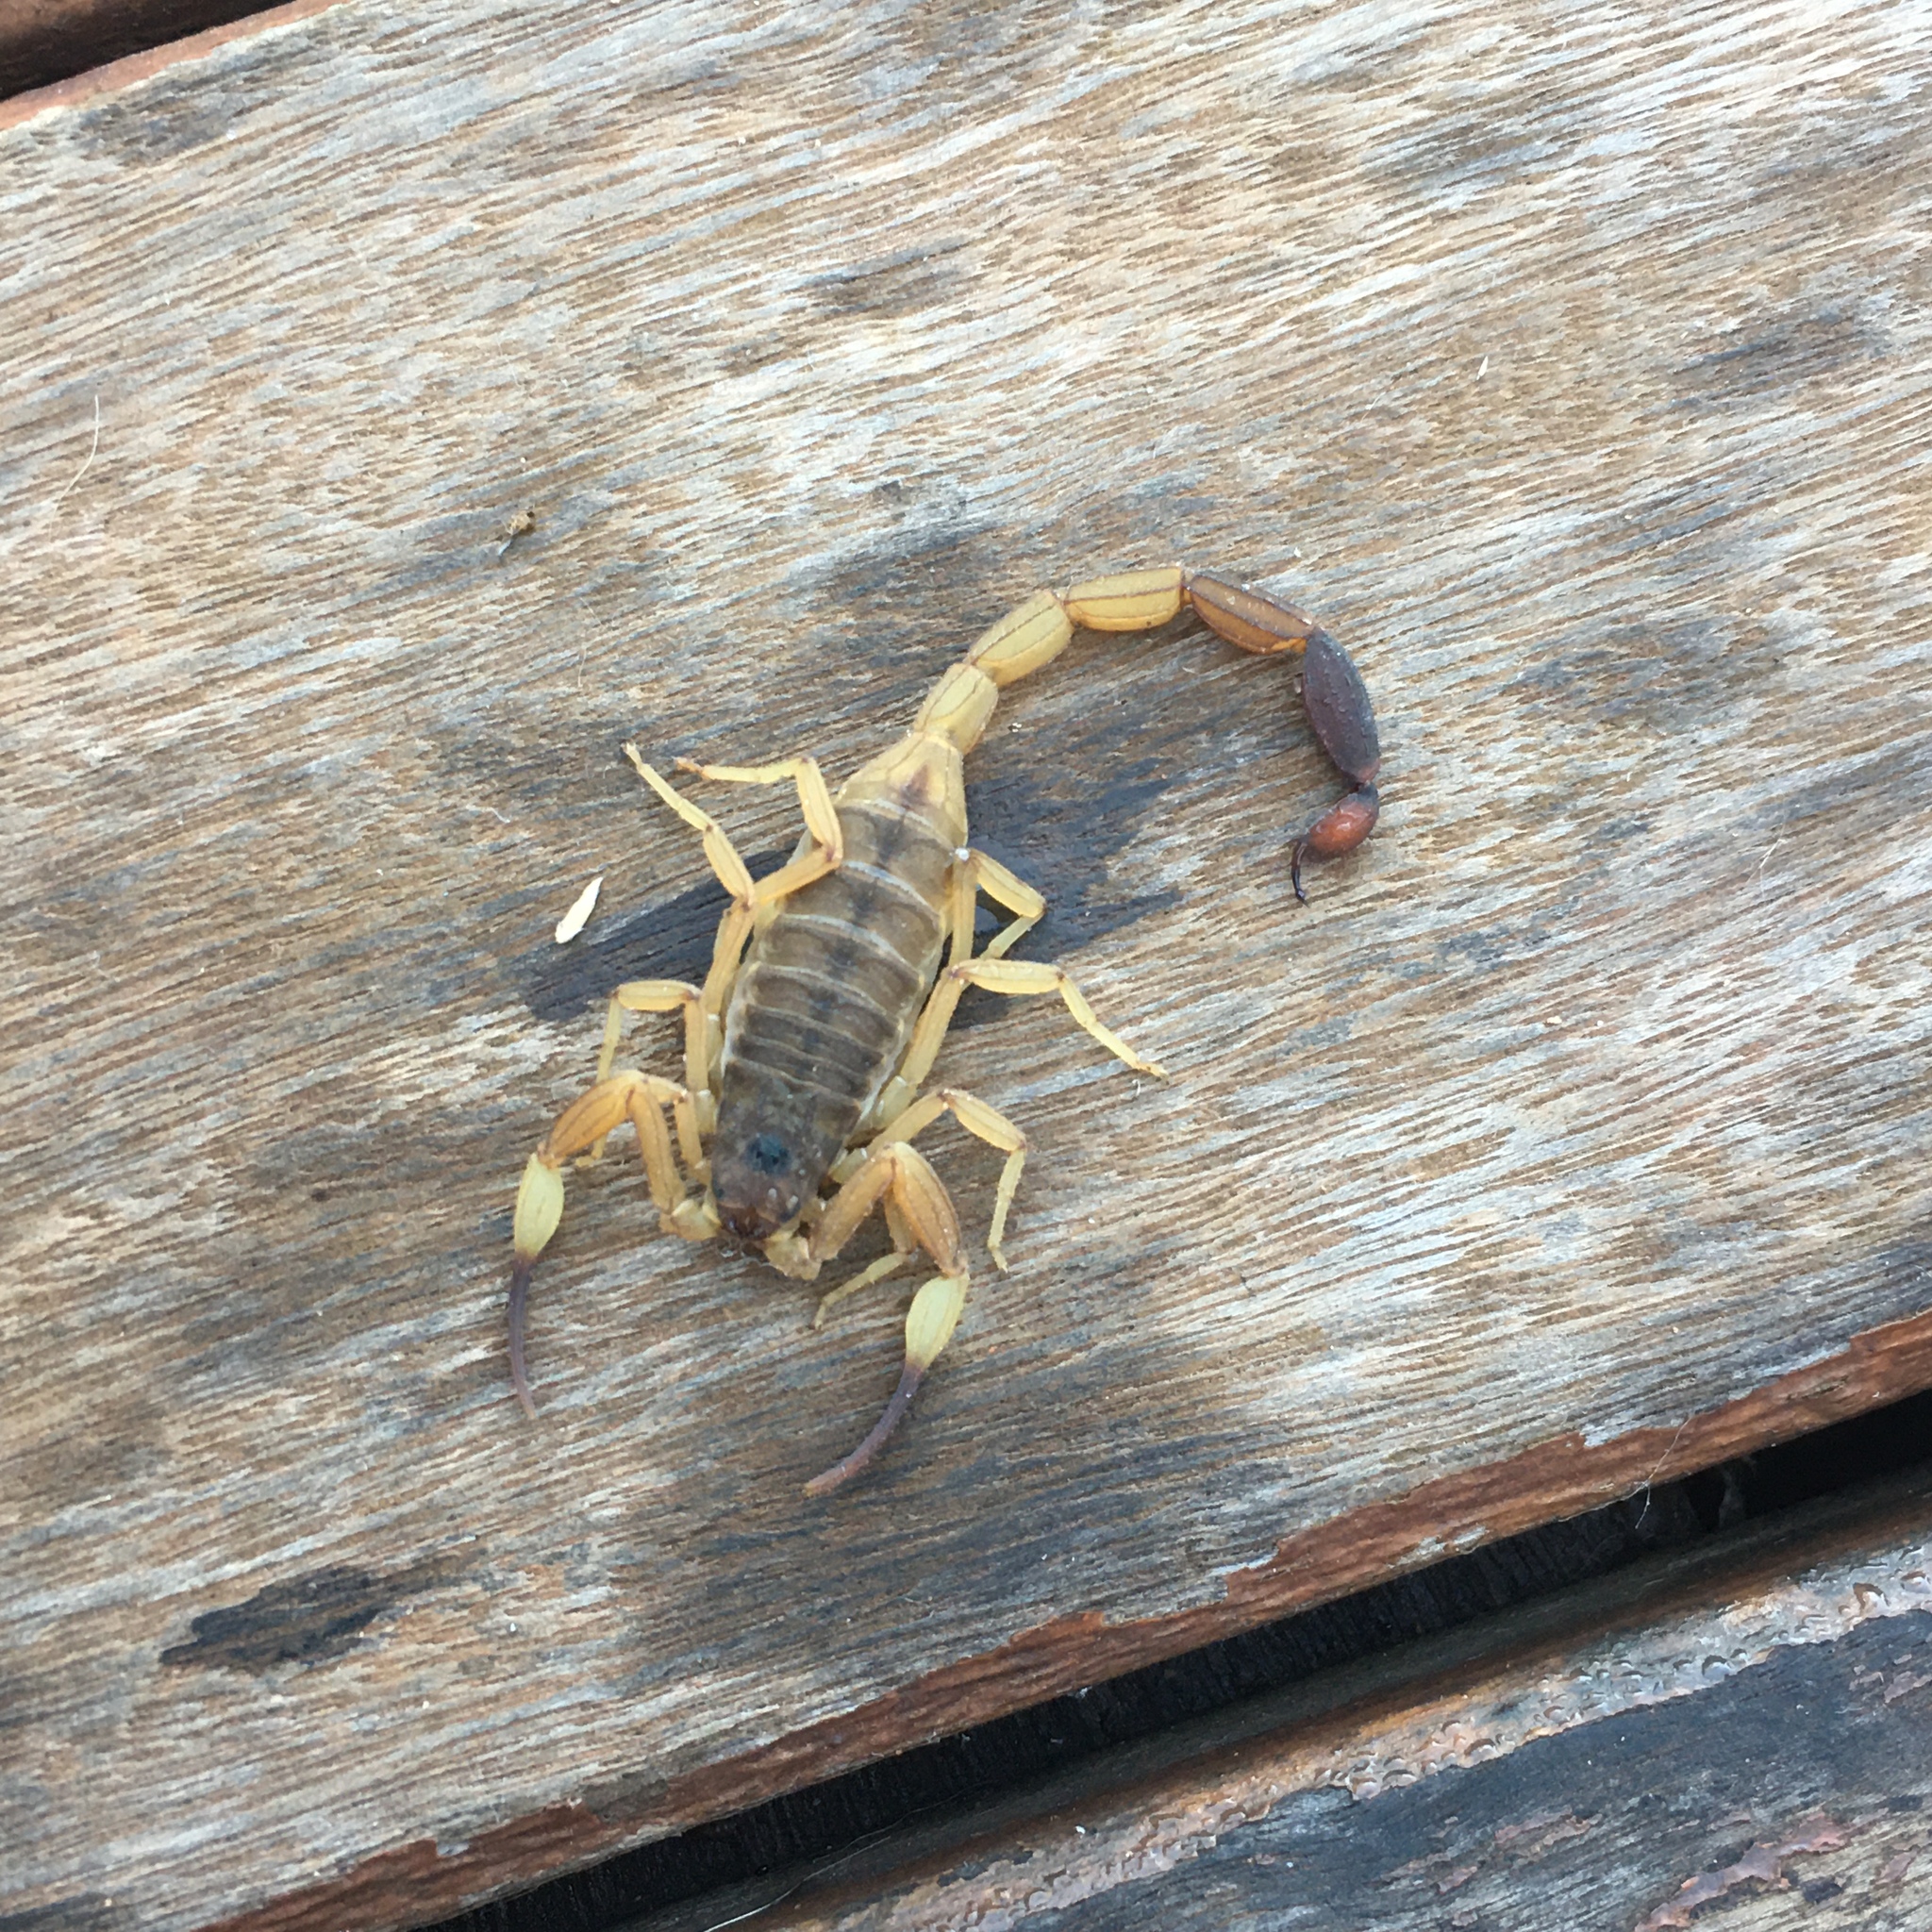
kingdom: Animalia
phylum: Arthropoda
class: Arachnida
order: Scorpiones
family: Buthidae
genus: Tityus
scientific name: Tityus confluens
